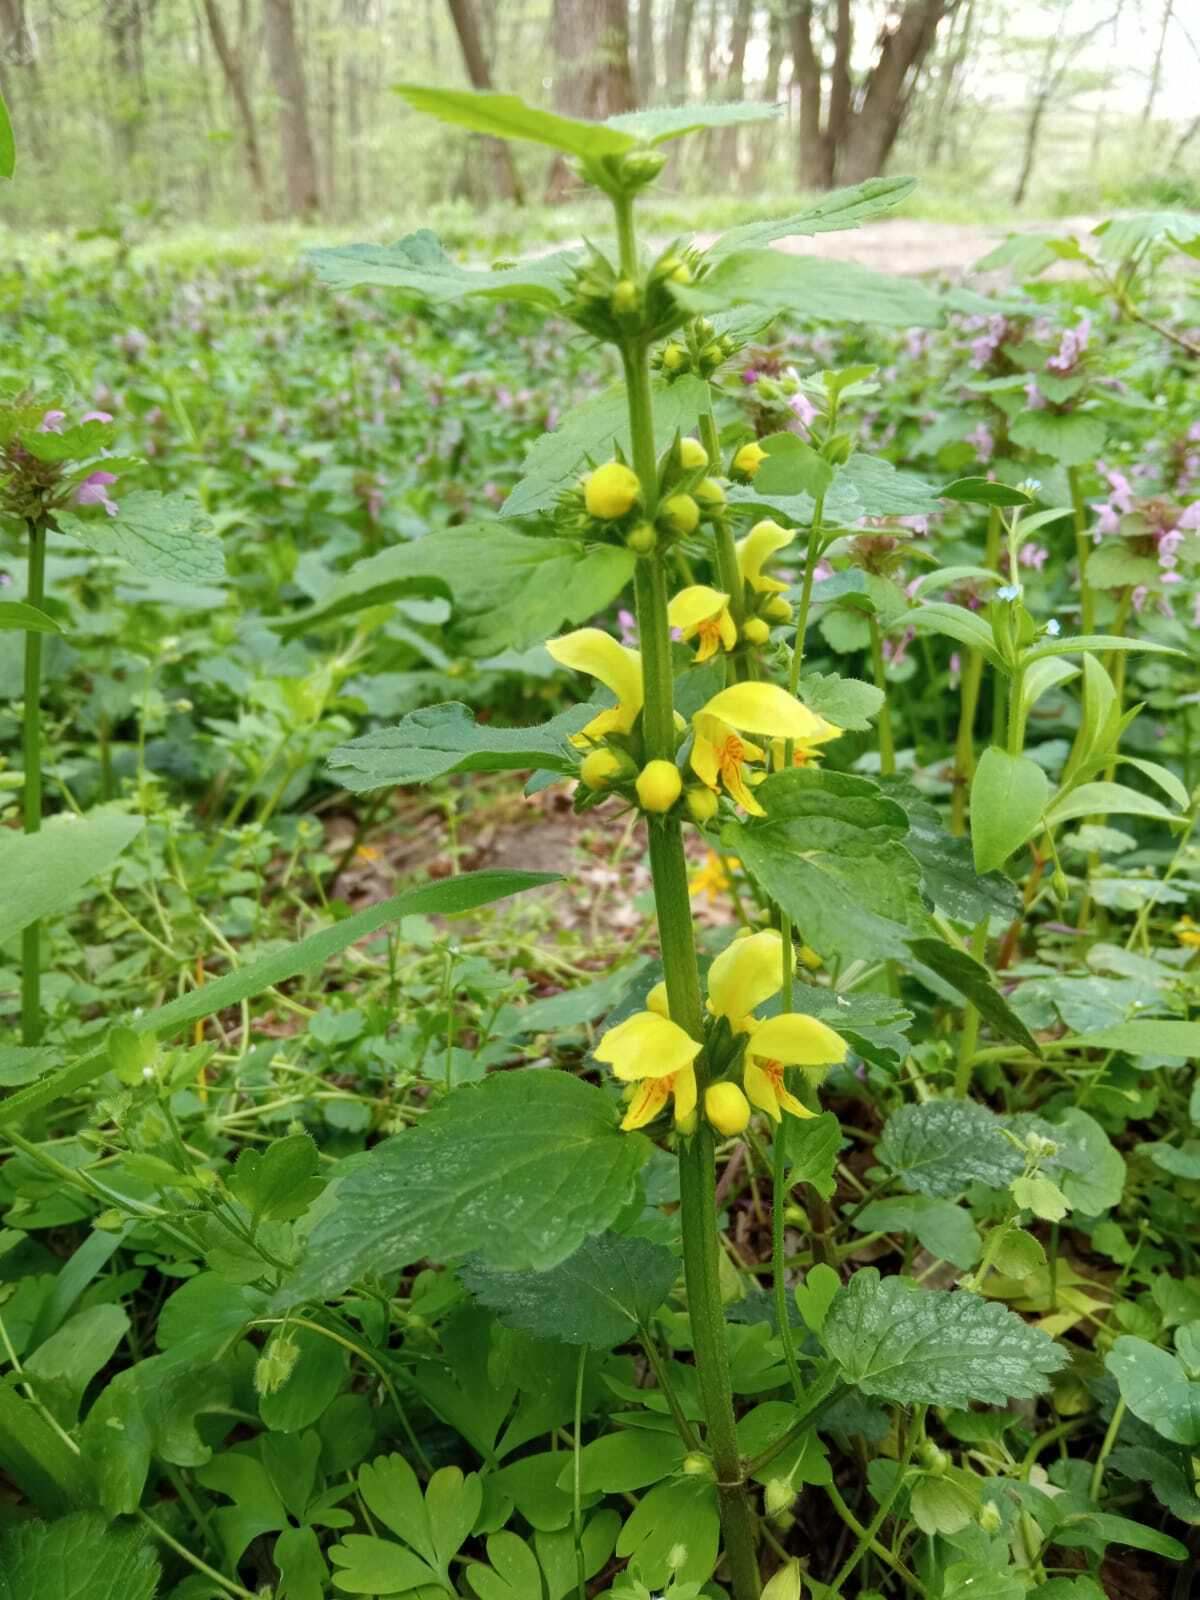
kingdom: Plantae
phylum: Tracheophyta
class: Magnoliopsida
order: Lamiales
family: Lamiaceae
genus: Lamium
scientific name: Lamium galeobdolon
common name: Yellow archangel
